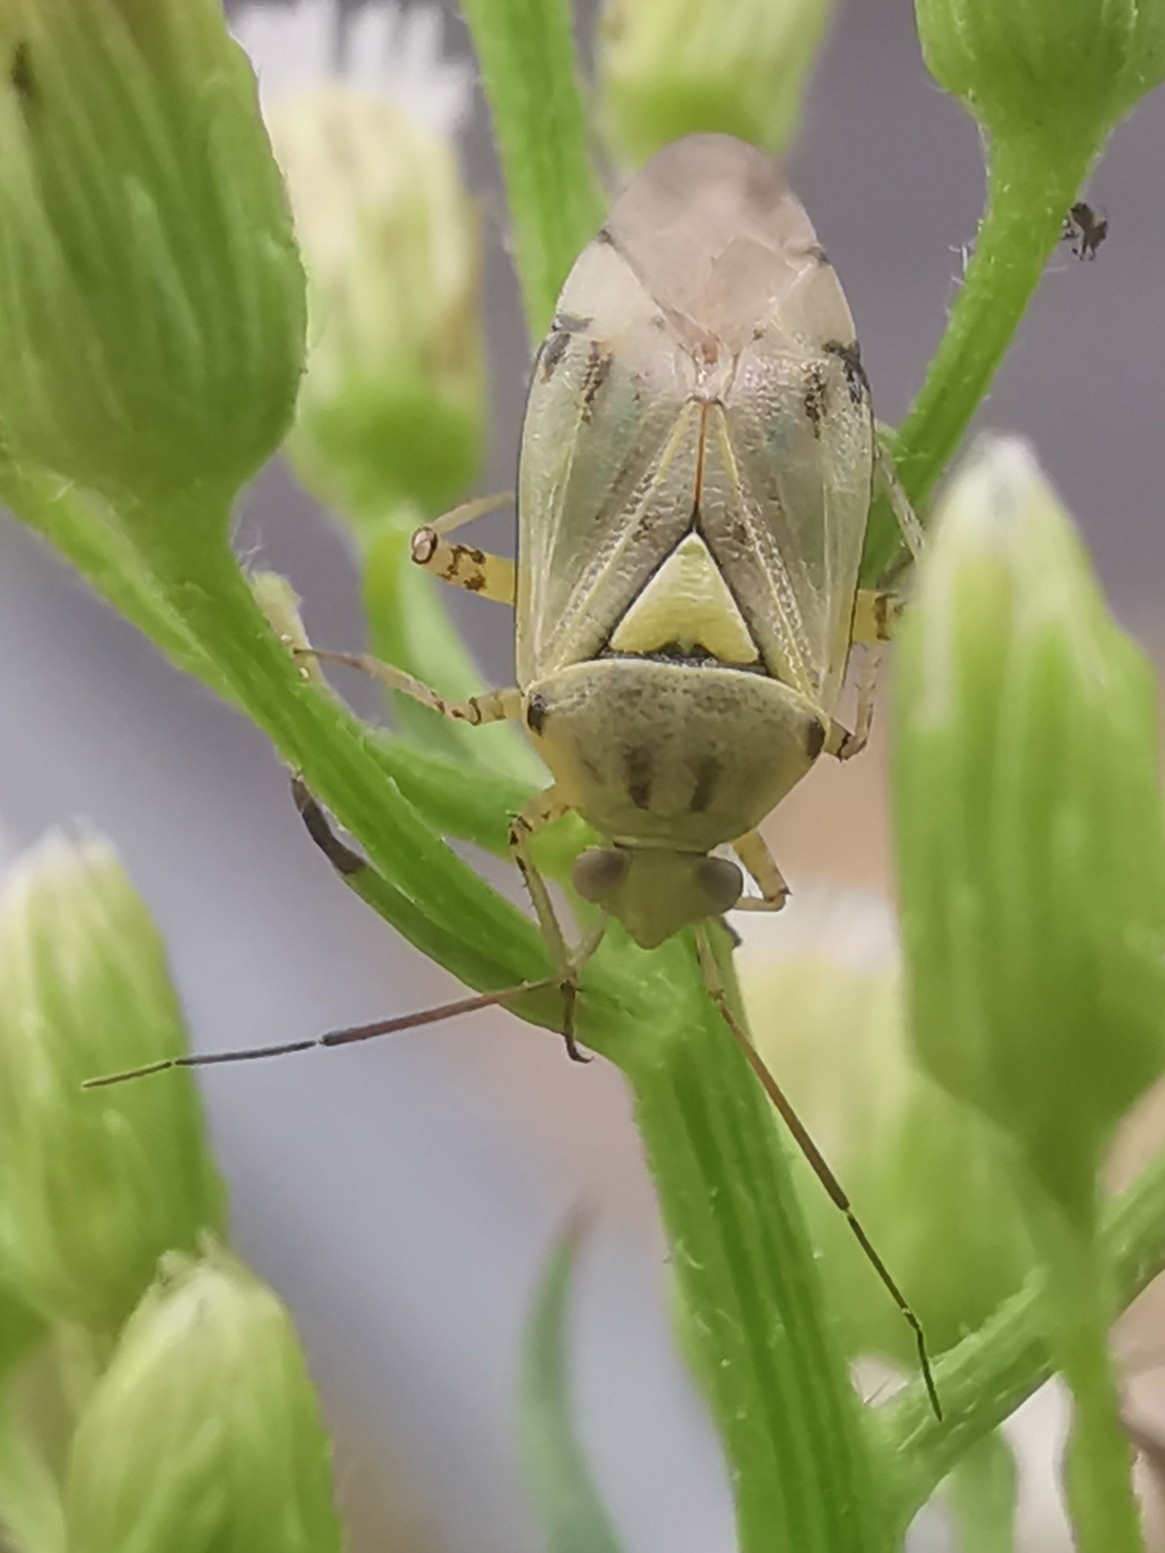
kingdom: Animalia
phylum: Arthropoda
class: Insecta
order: Hemiptera
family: Miridae
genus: Lygus
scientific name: Lygus pratensis
